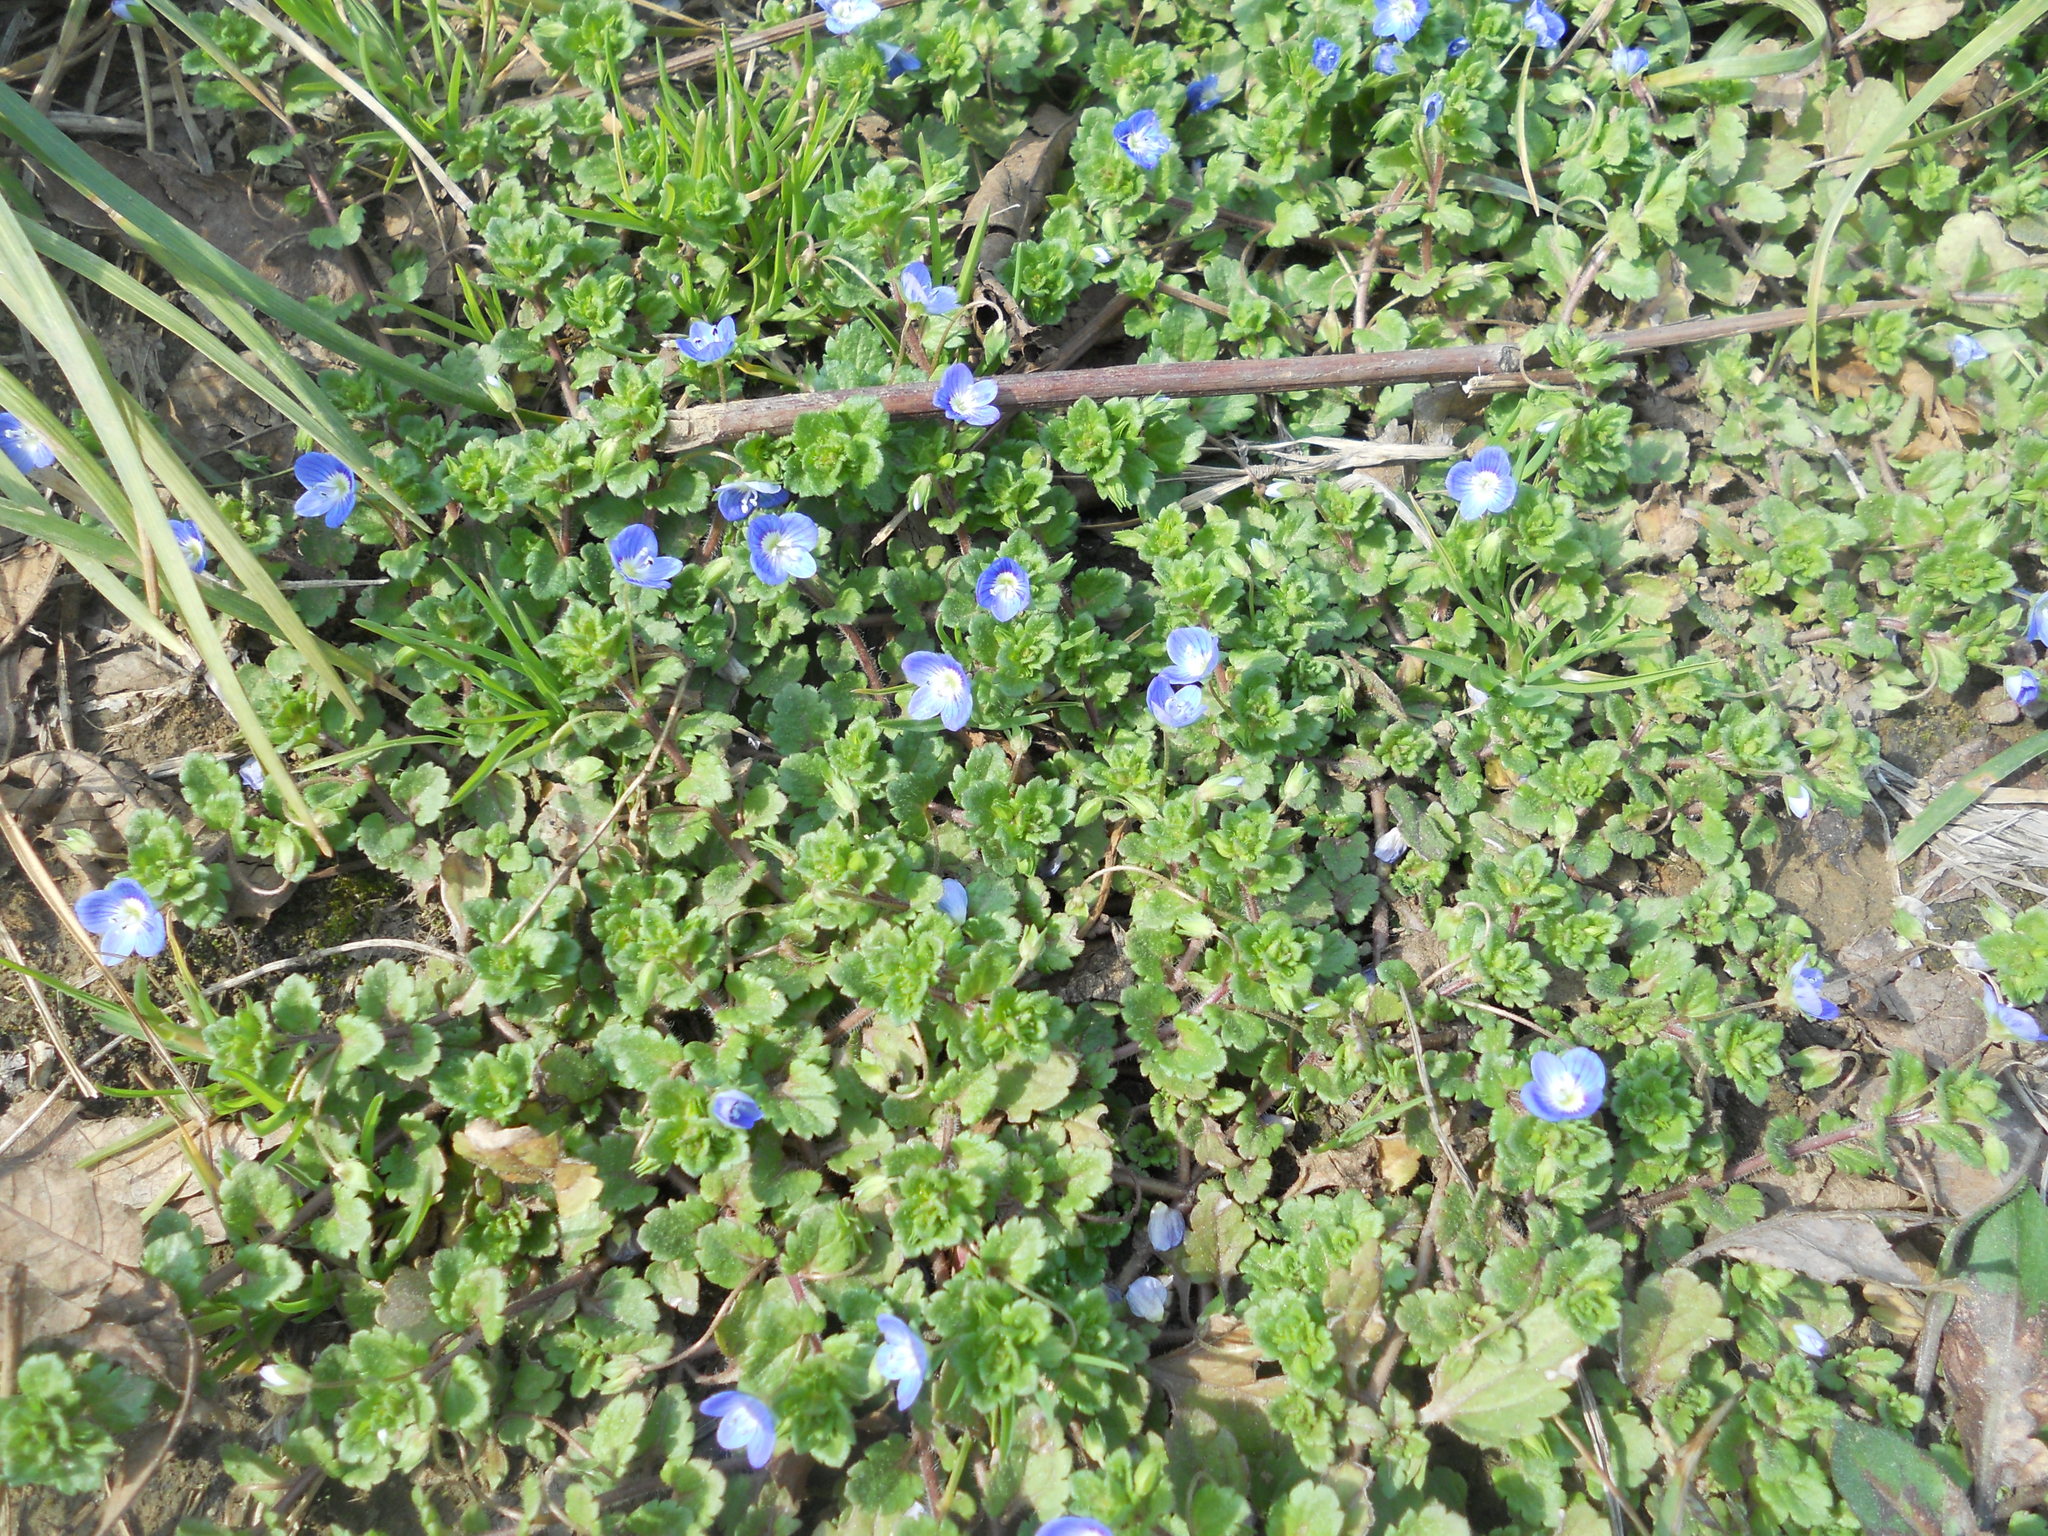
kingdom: Plantae
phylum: Tracheophyta
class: Magnoliopsida
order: Lamiales
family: Plantaginaceae
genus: Veronica
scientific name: Veronica persica
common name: Common field-speedwell
